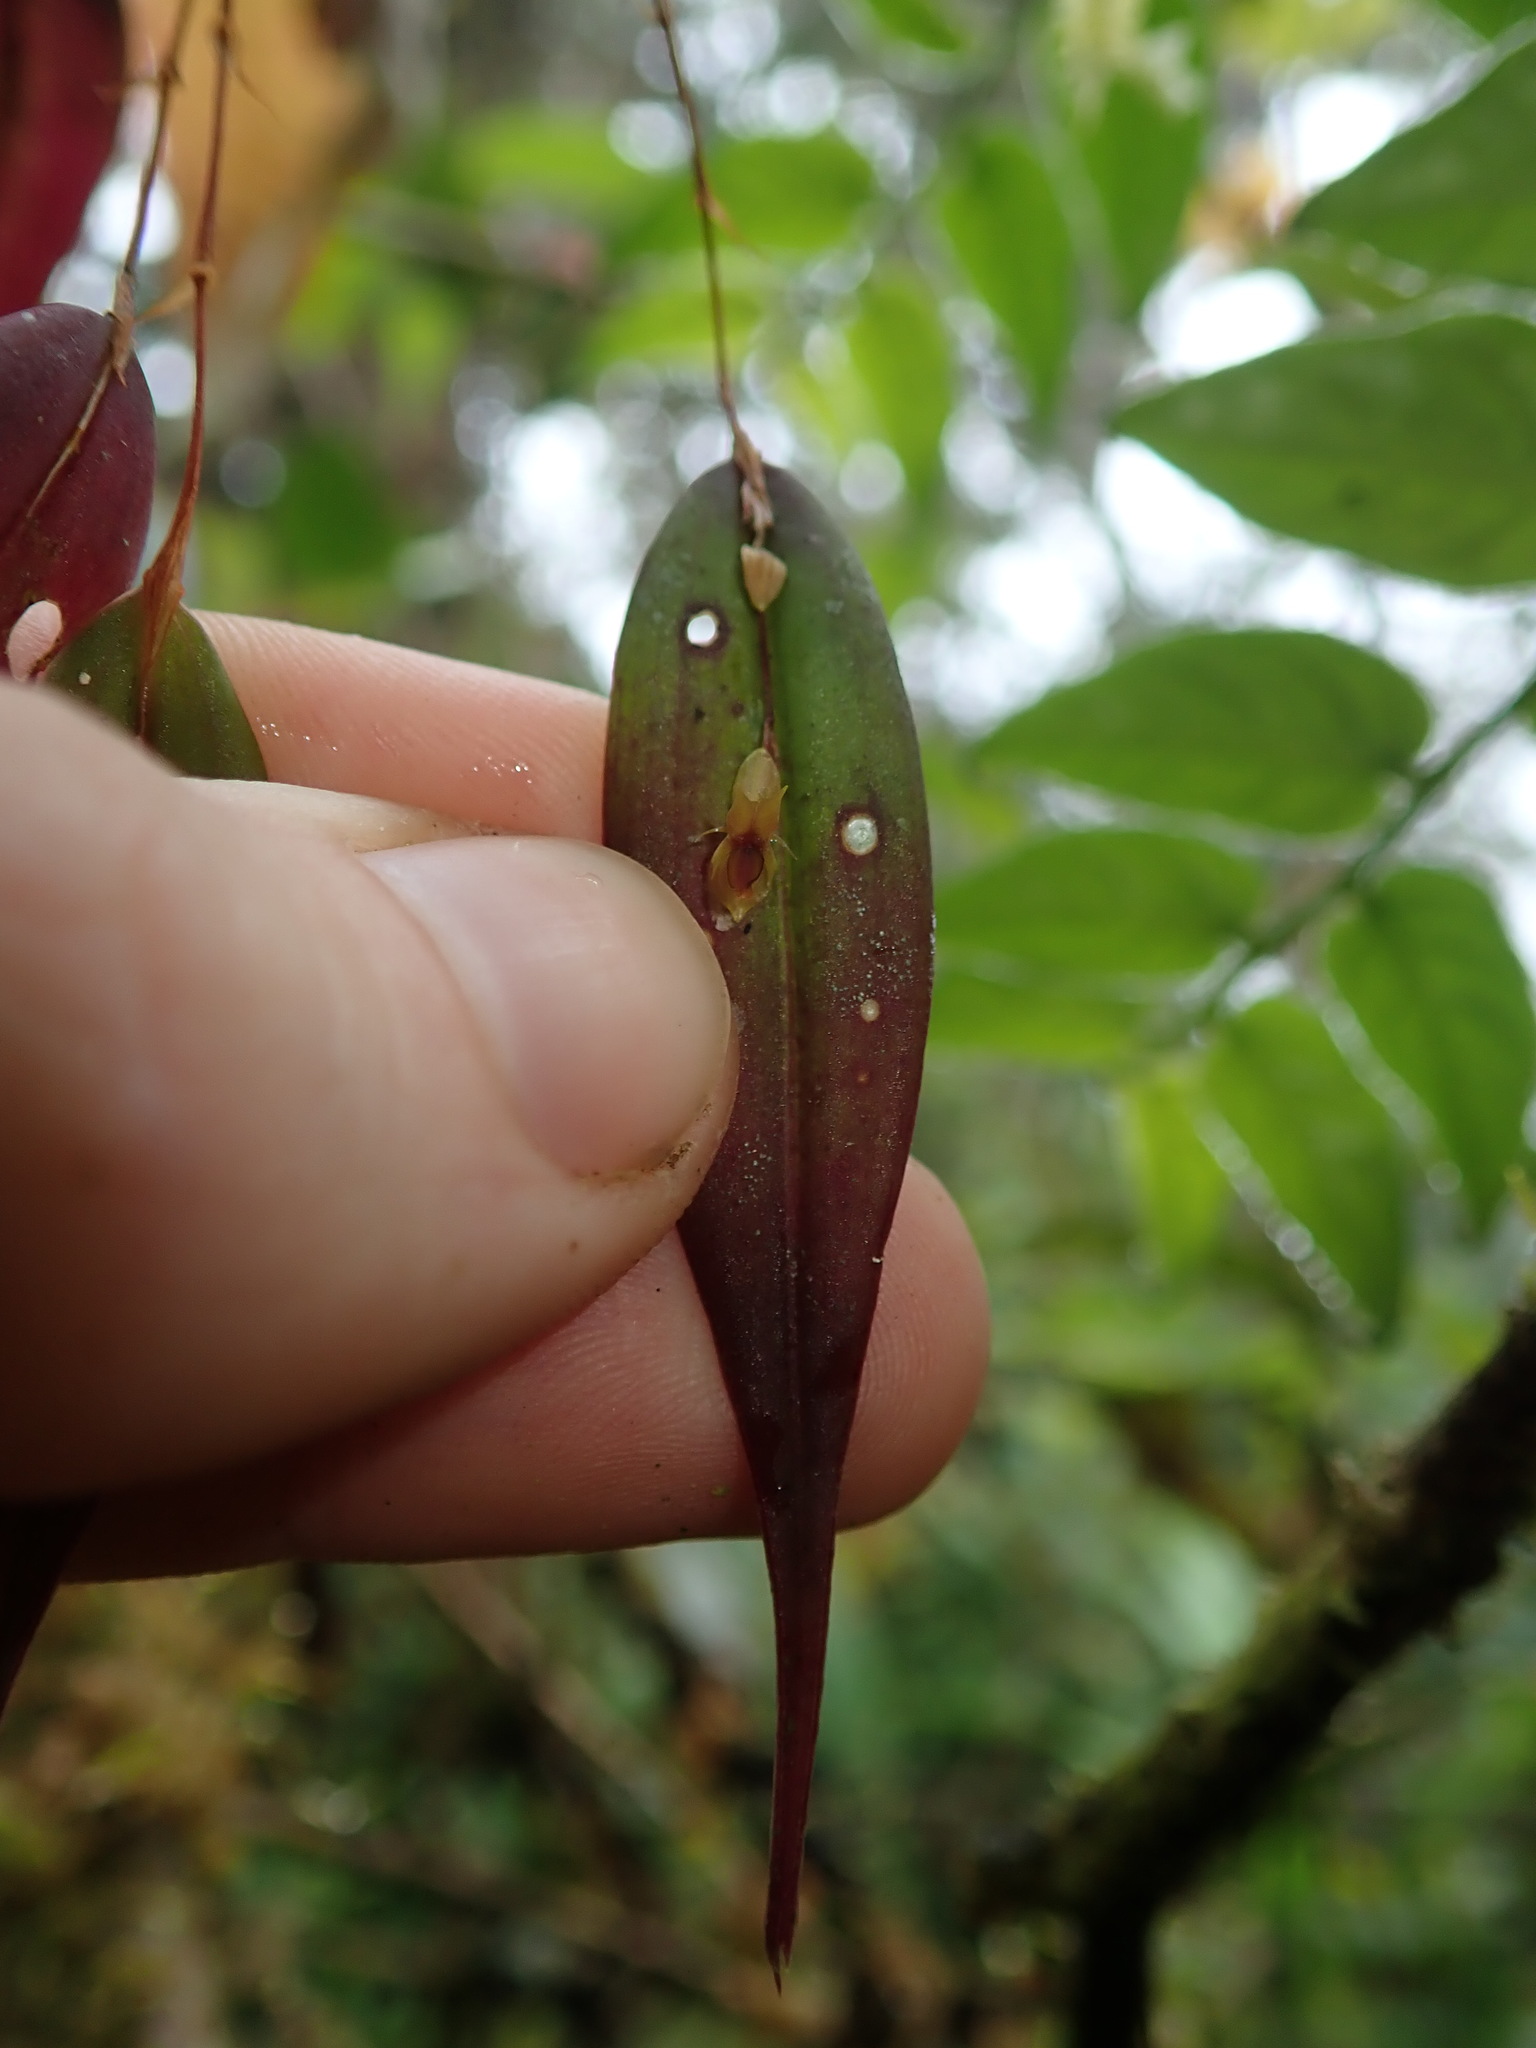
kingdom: Plantae
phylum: Tracheophyta
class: Liliopsida
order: Asparagales
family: Orchidaceae
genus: Lepanthes
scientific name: Lepanthes mucronata
